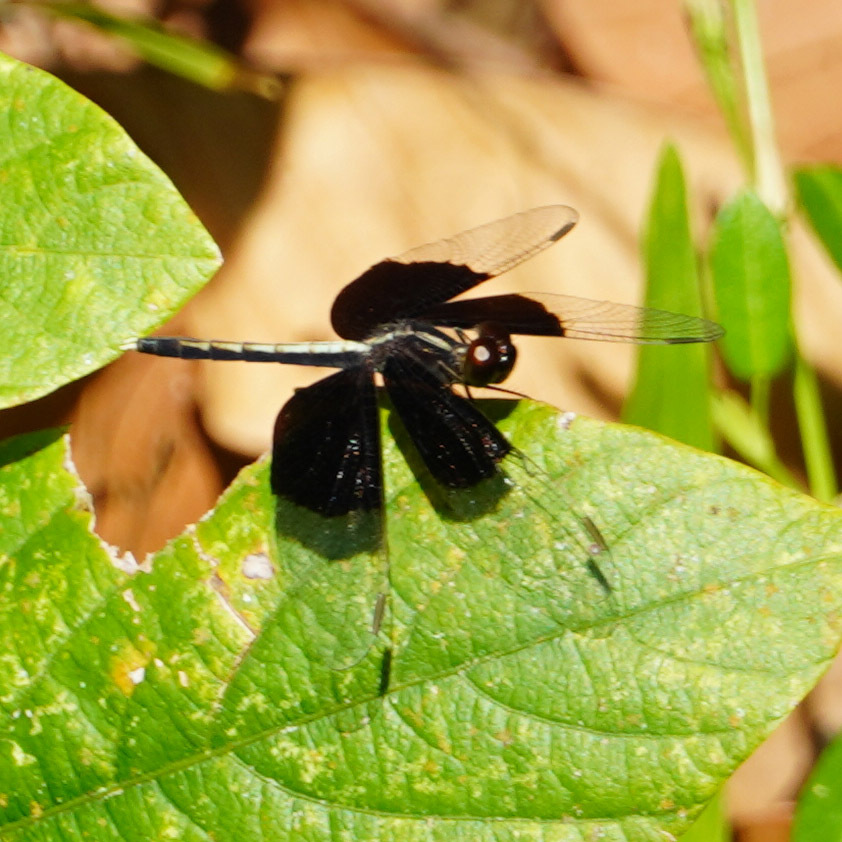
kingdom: Animalia
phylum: Arthropoda
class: Insecta
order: Odonata
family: Libellulidae
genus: Neurothemis
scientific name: Neurothemis tullia
